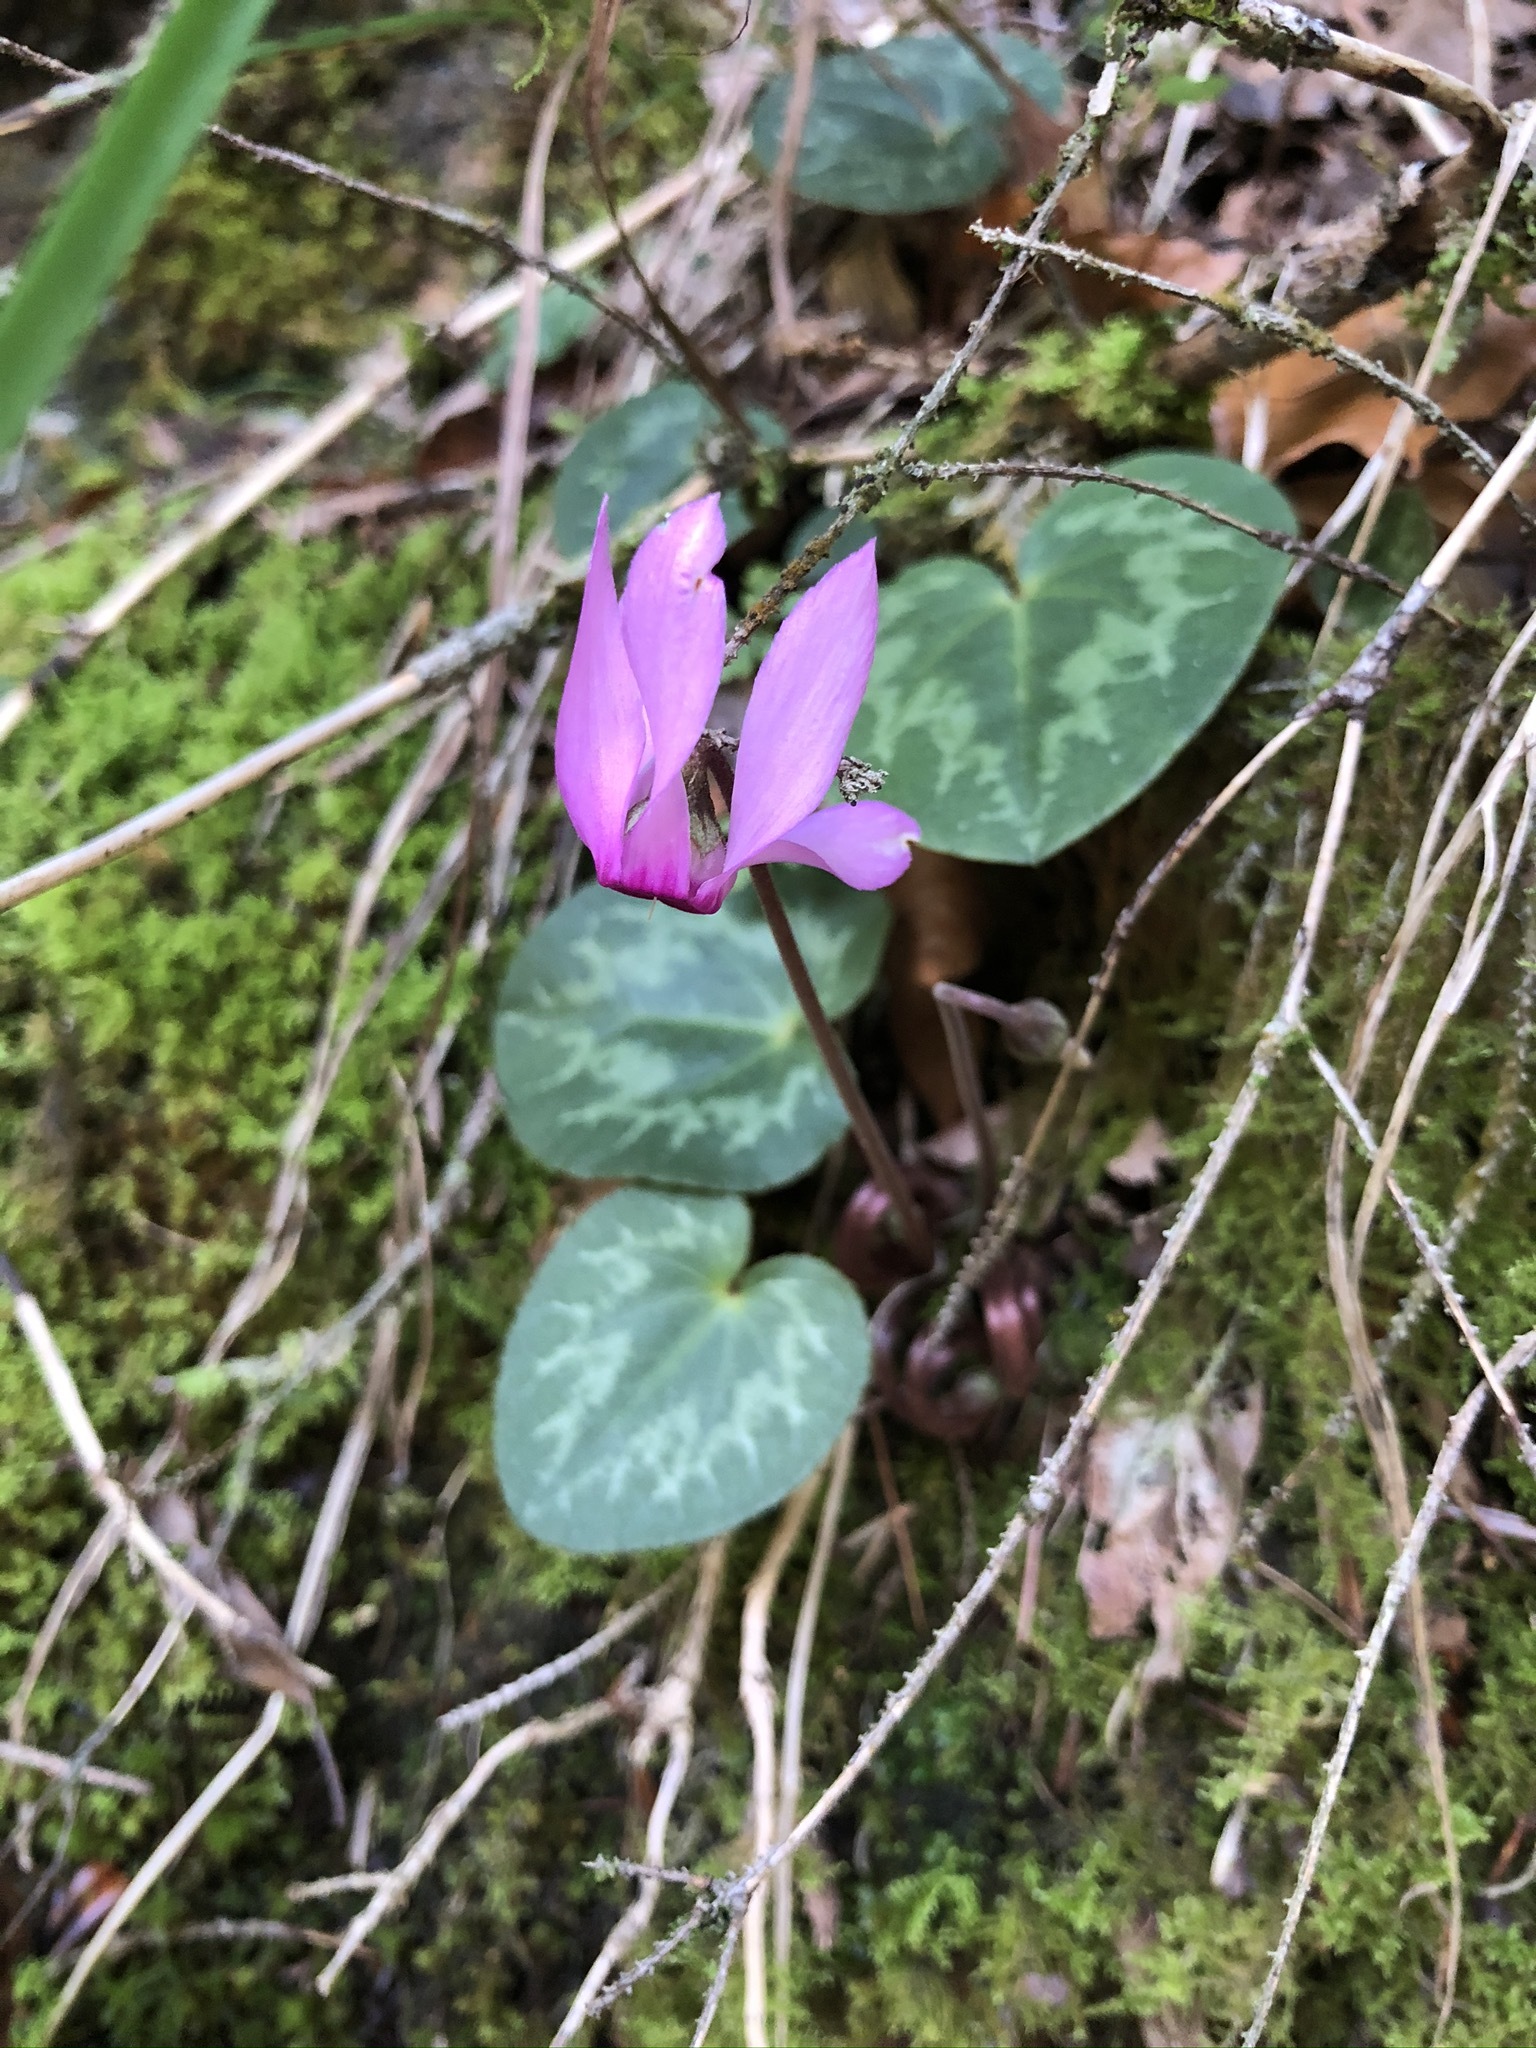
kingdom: Plantae
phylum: Tracheophyta
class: Magnoliopsida
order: Ericales
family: Primulaceae
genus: Cyclamen
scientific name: Cyclamen purpurascens
